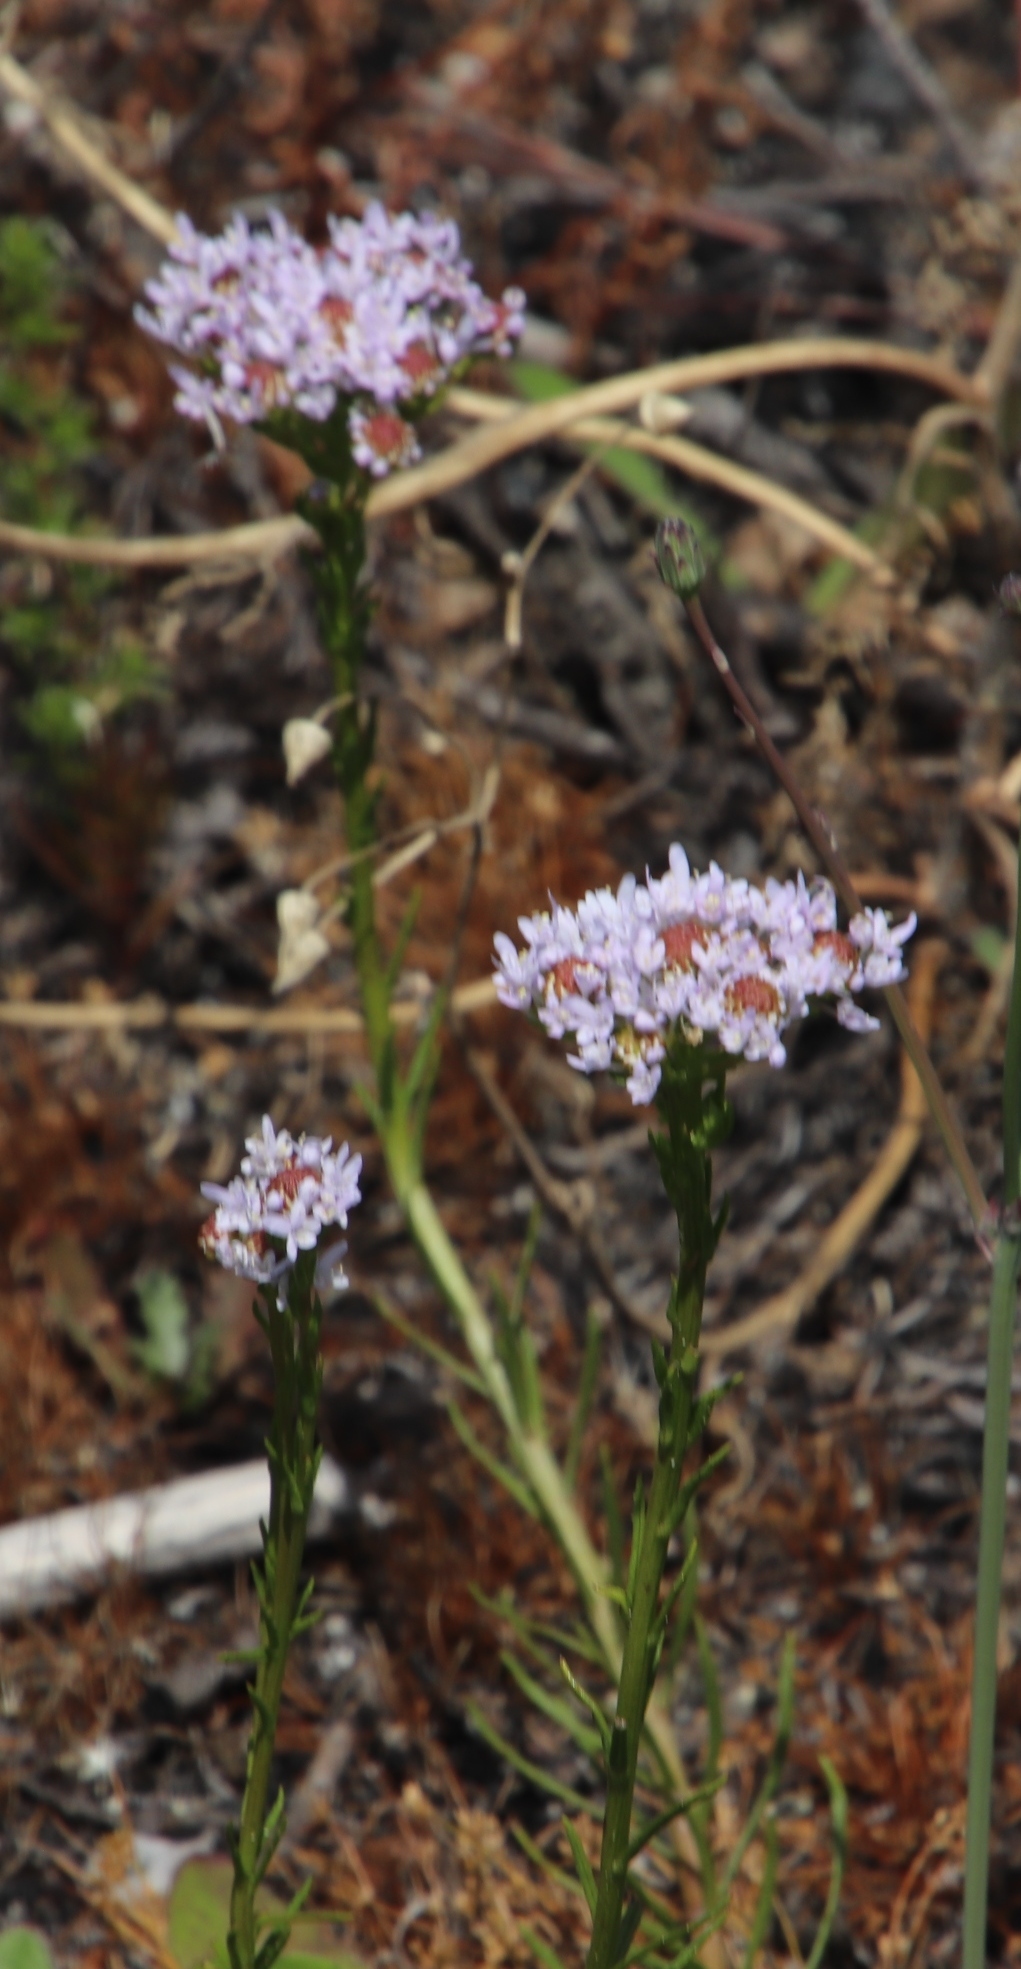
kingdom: Plantae
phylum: Tracheophyta
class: Magnoliopsida
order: Lamiales
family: Scrophulariaceae
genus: Pseudoselago
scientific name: Pseudoselago spuria
